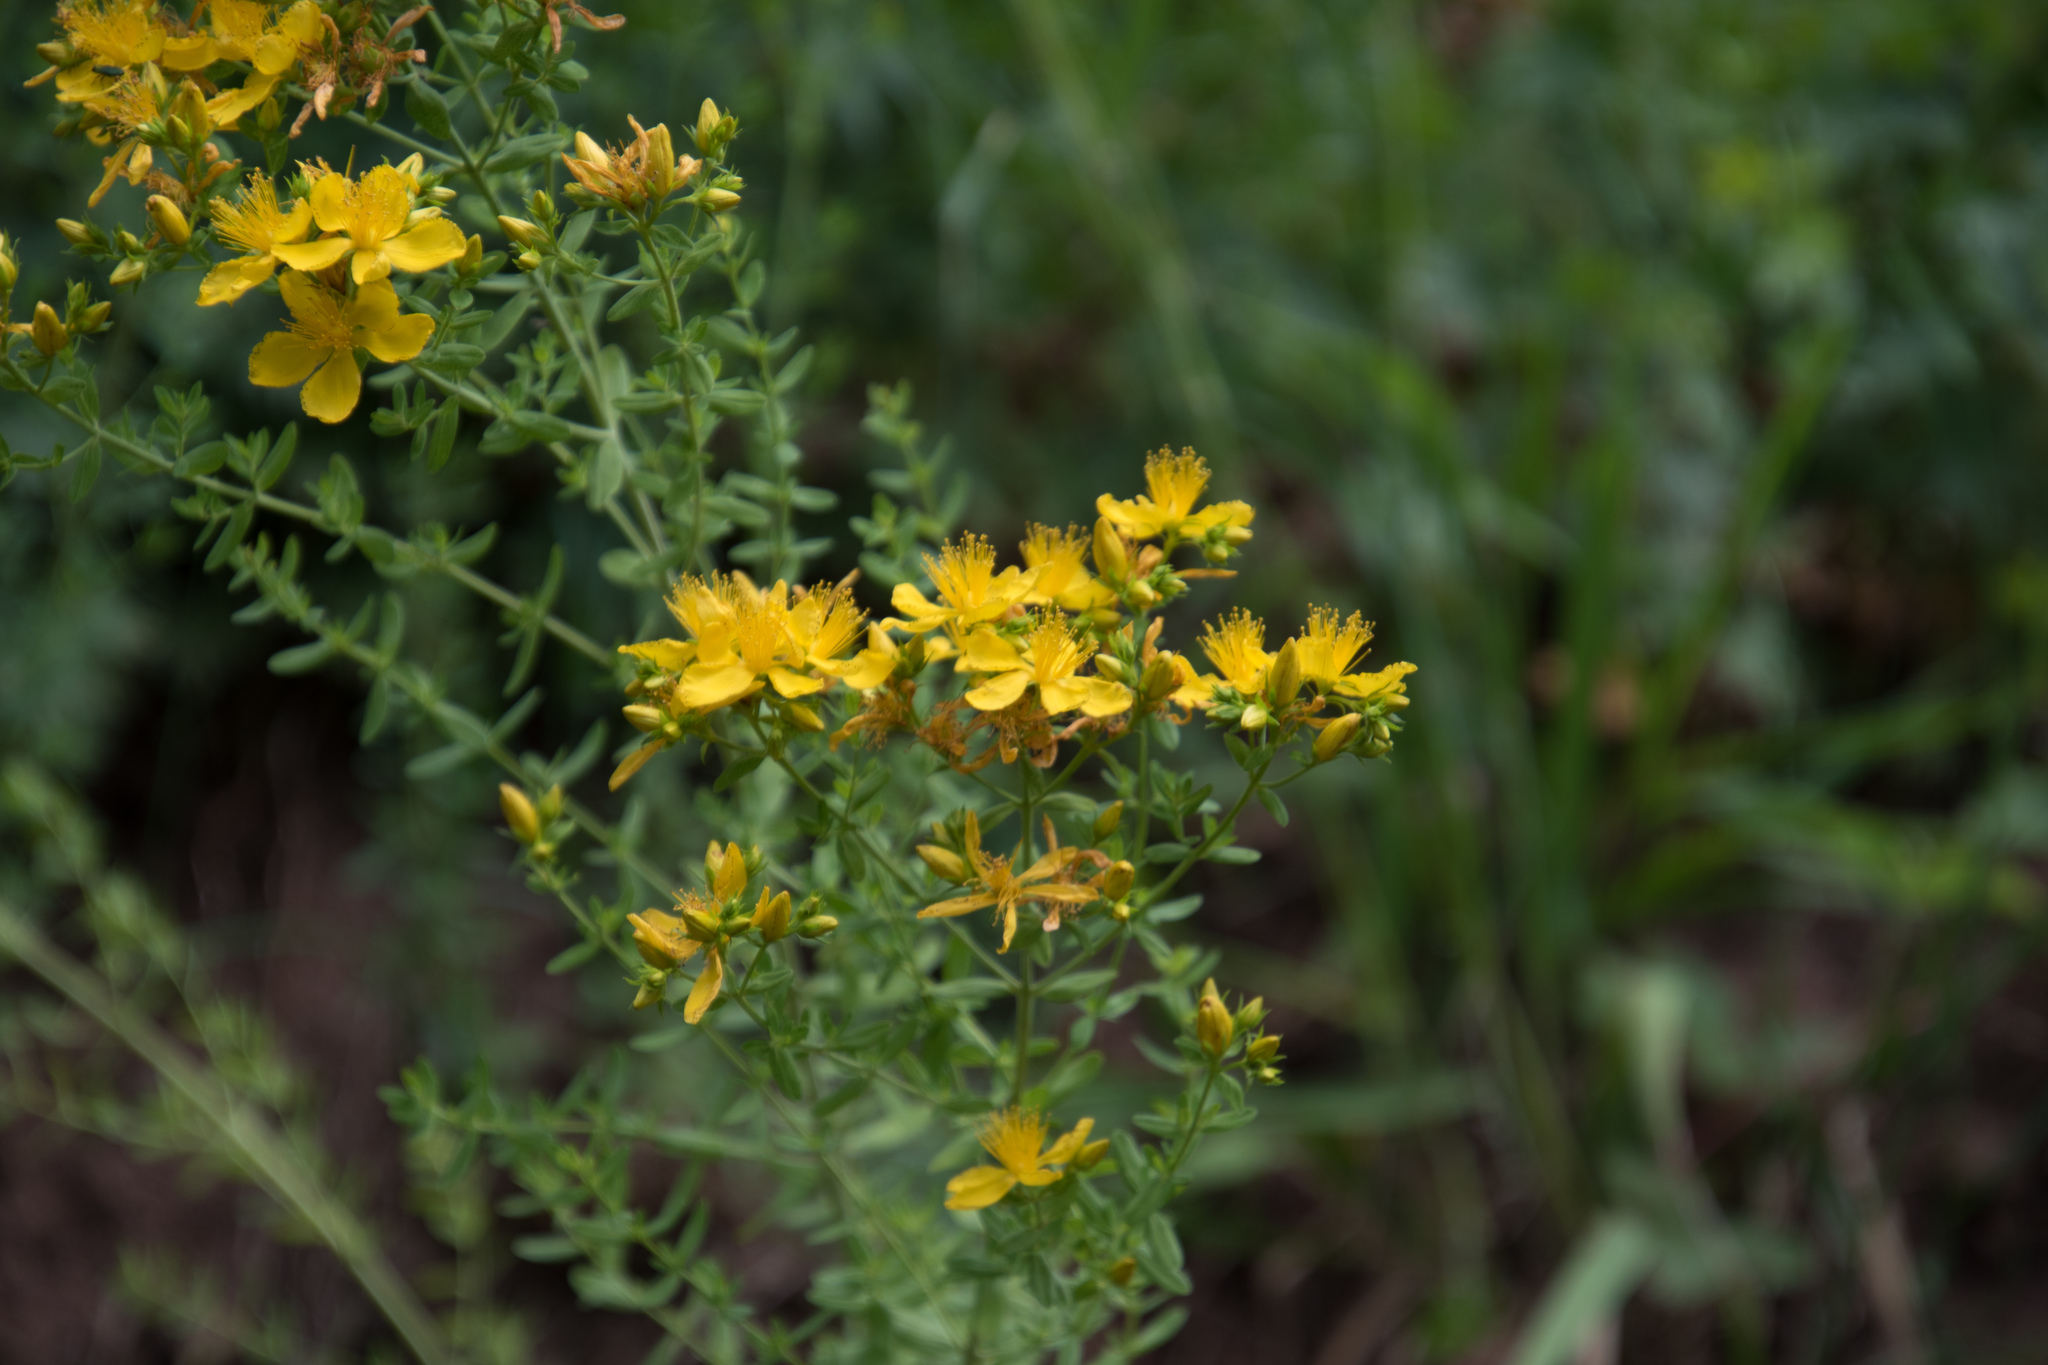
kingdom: Plantae
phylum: Tracheophyta
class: Magnoliopsida
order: Malpighiales
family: Hypericaceae
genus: Hypericum
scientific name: Hypericum perforatum
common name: Common st. johnswort
